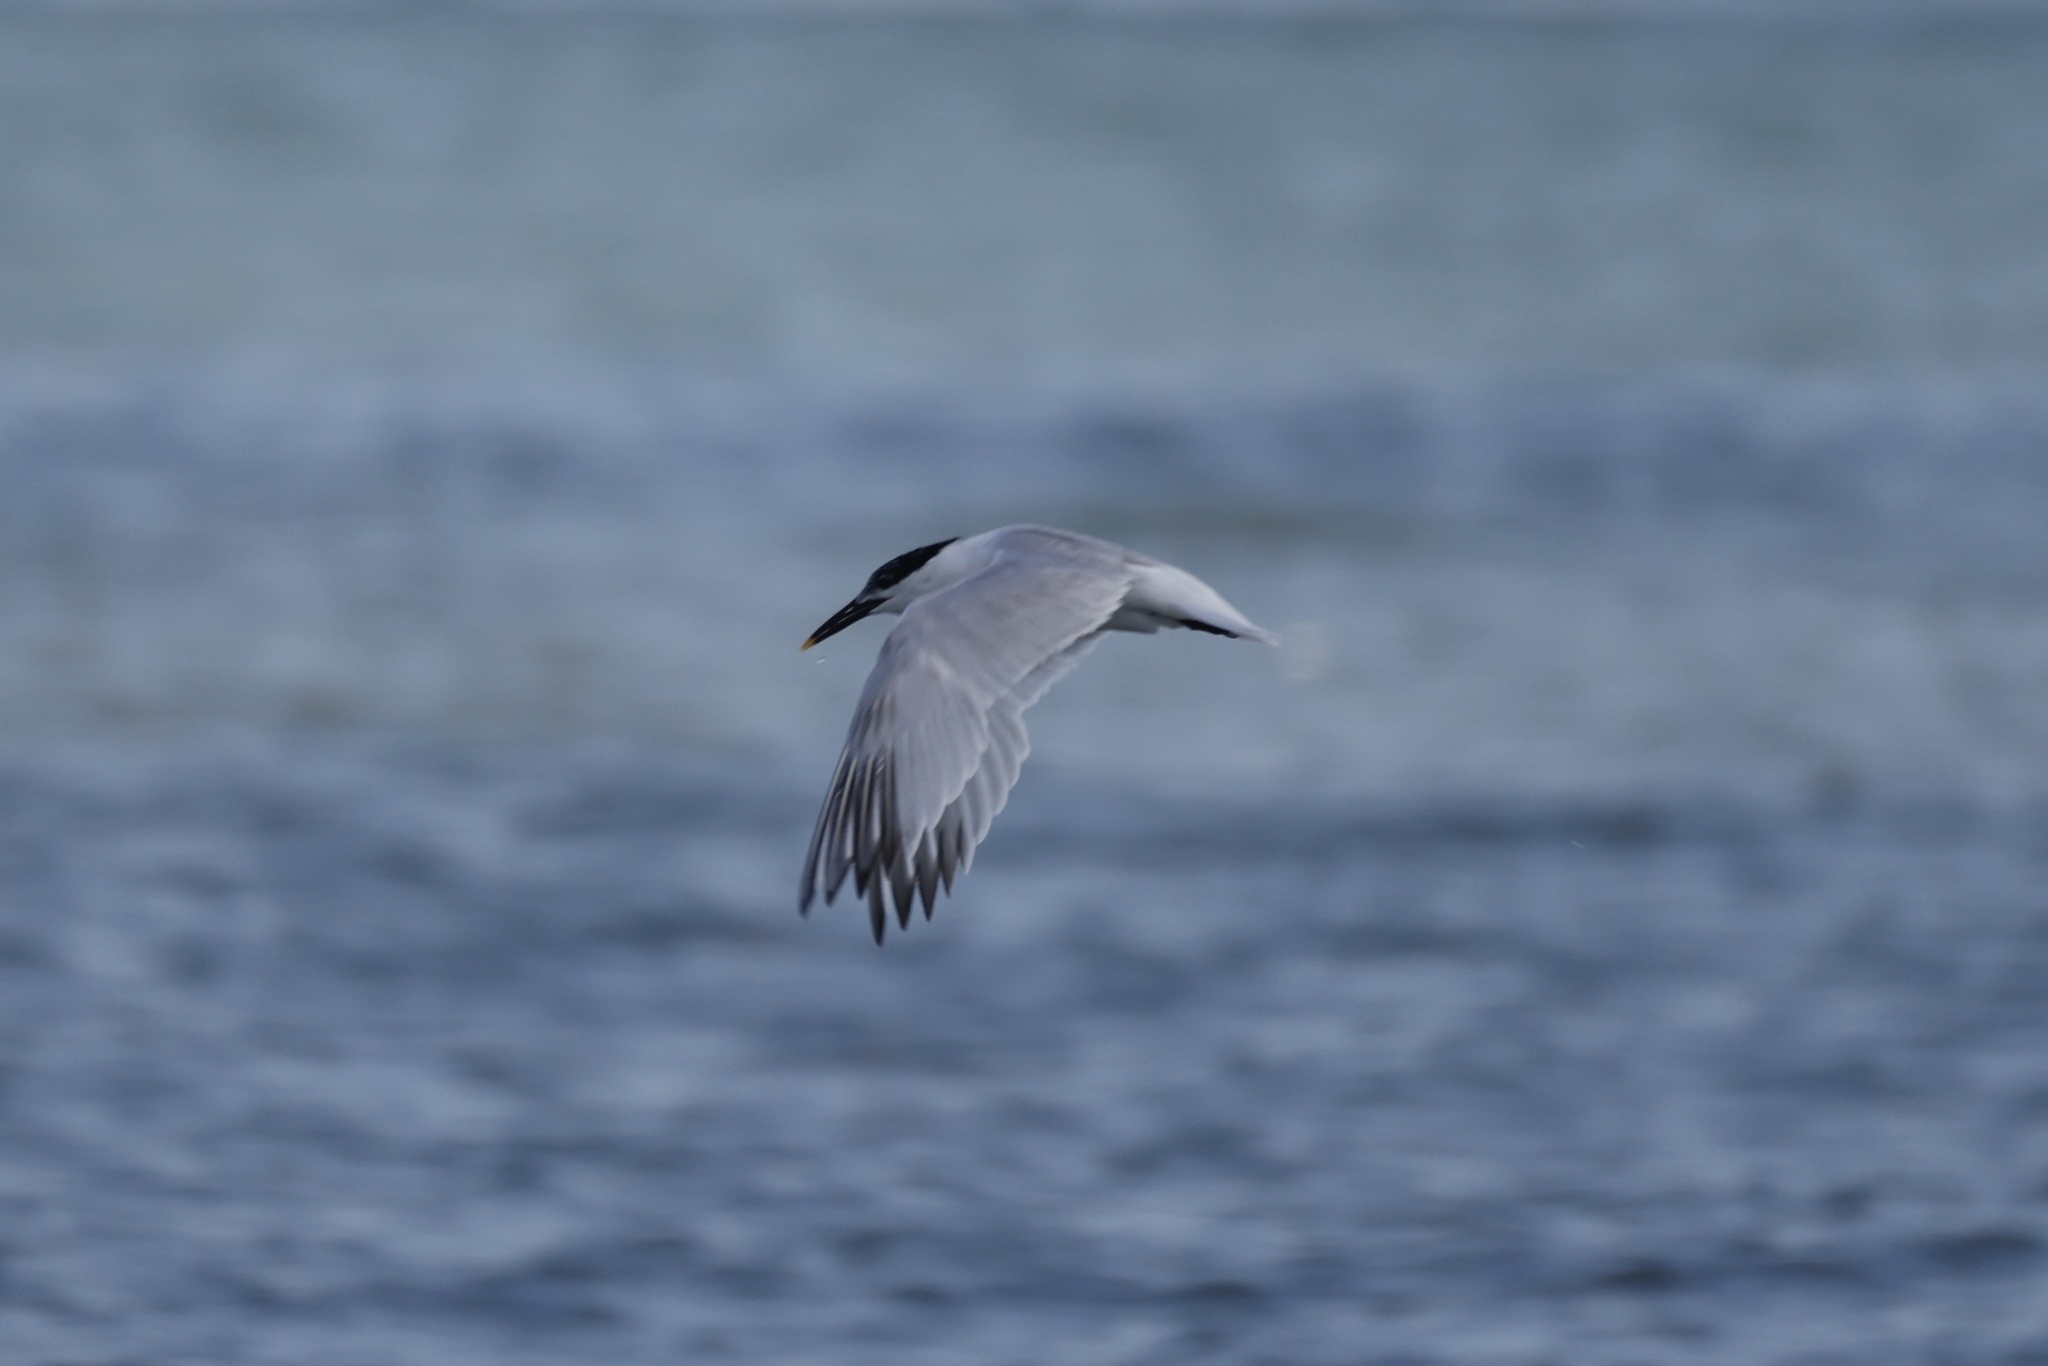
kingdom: Animalia
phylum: Chordata
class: Aves
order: Charadriiformes
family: Laridae
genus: Thalasseus
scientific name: Thalasseus sandvicensis
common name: Sandwich tern
